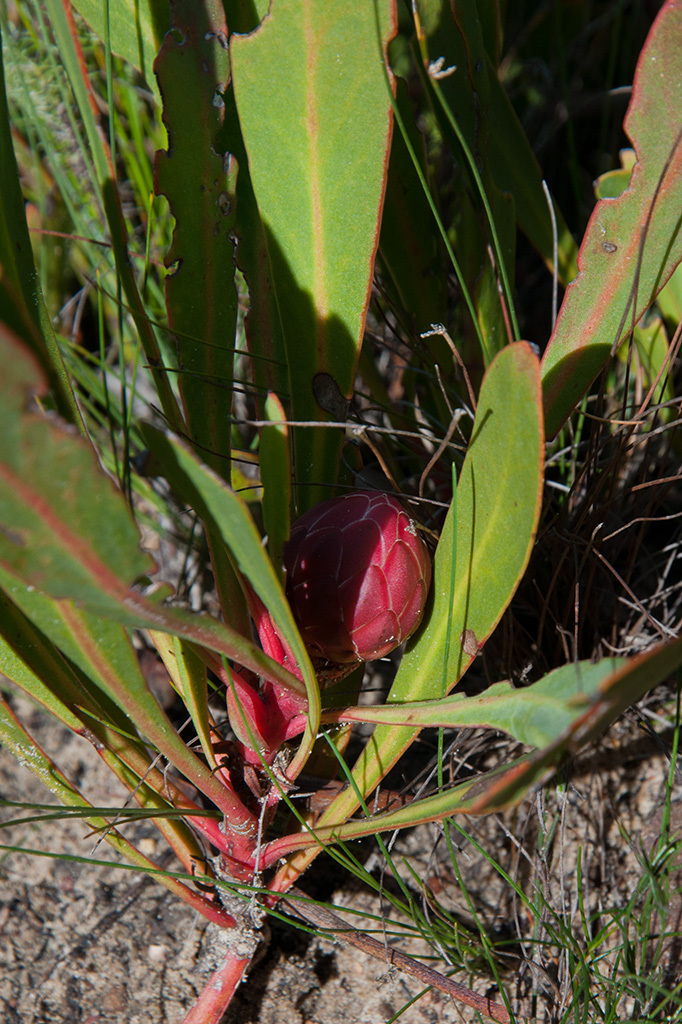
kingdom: Plantae
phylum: Tracheophyta
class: Magnoliopsida
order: Proteales
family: Proteaceae
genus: Protea
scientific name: Protea acaulos
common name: Common ground sugarbush
